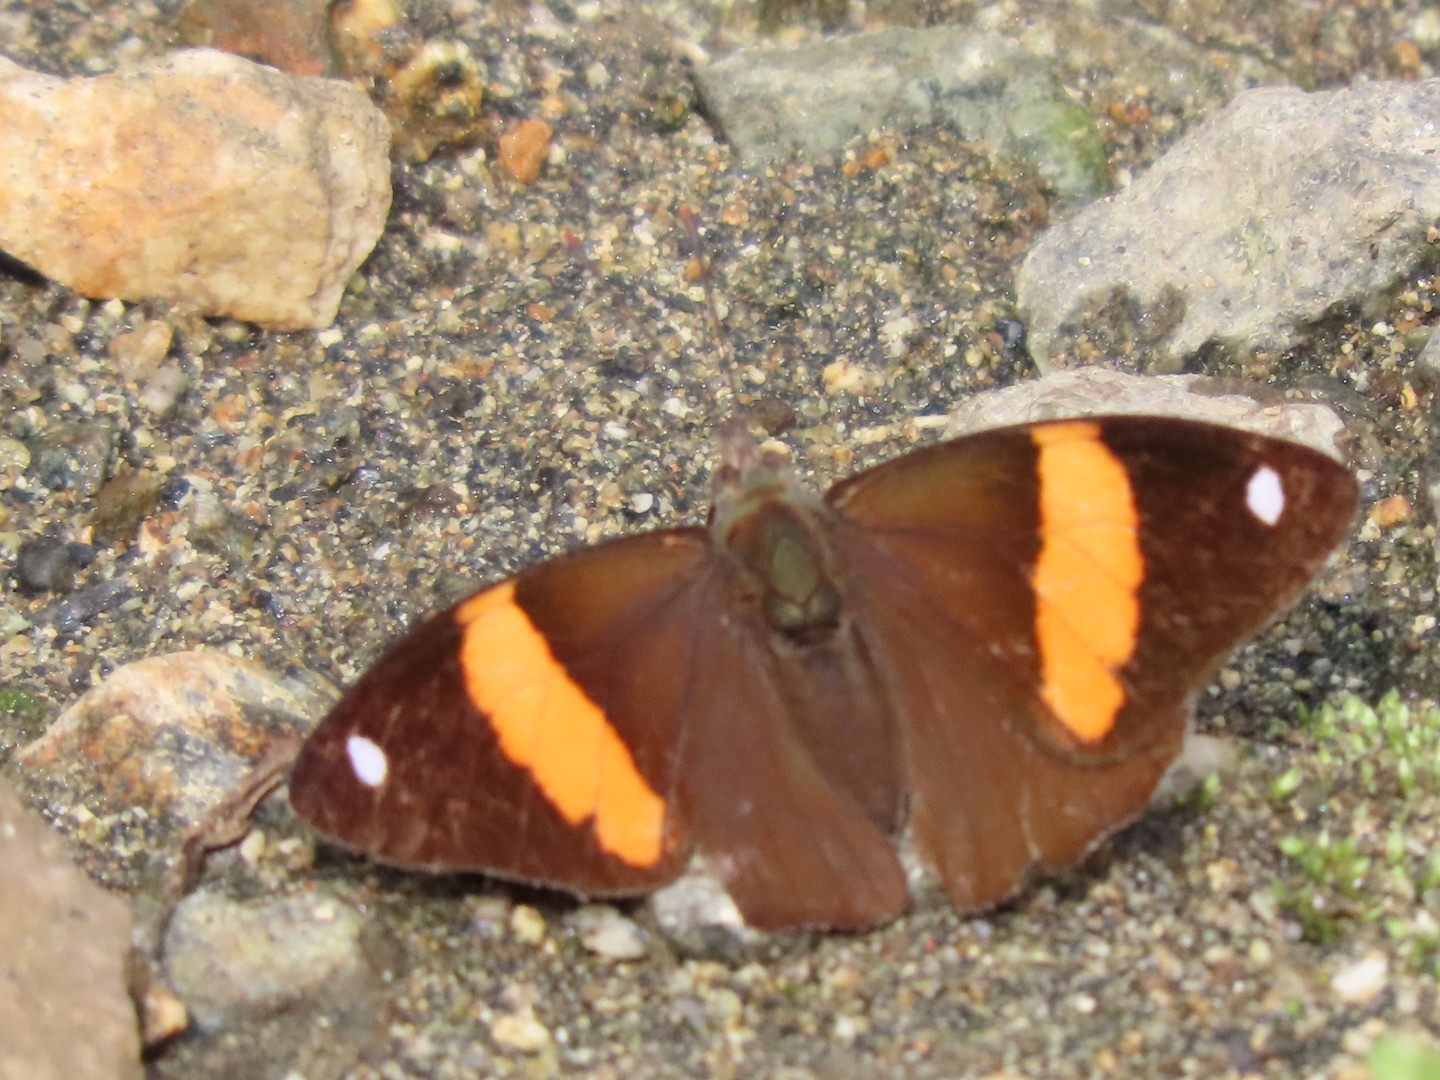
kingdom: Animalia
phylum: Arthropoda
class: Insecta
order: Lepidoptera
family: Nymphalidae
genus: Diaethria
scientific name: Diaethria pandama
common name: Orange-striped eighty-eight
